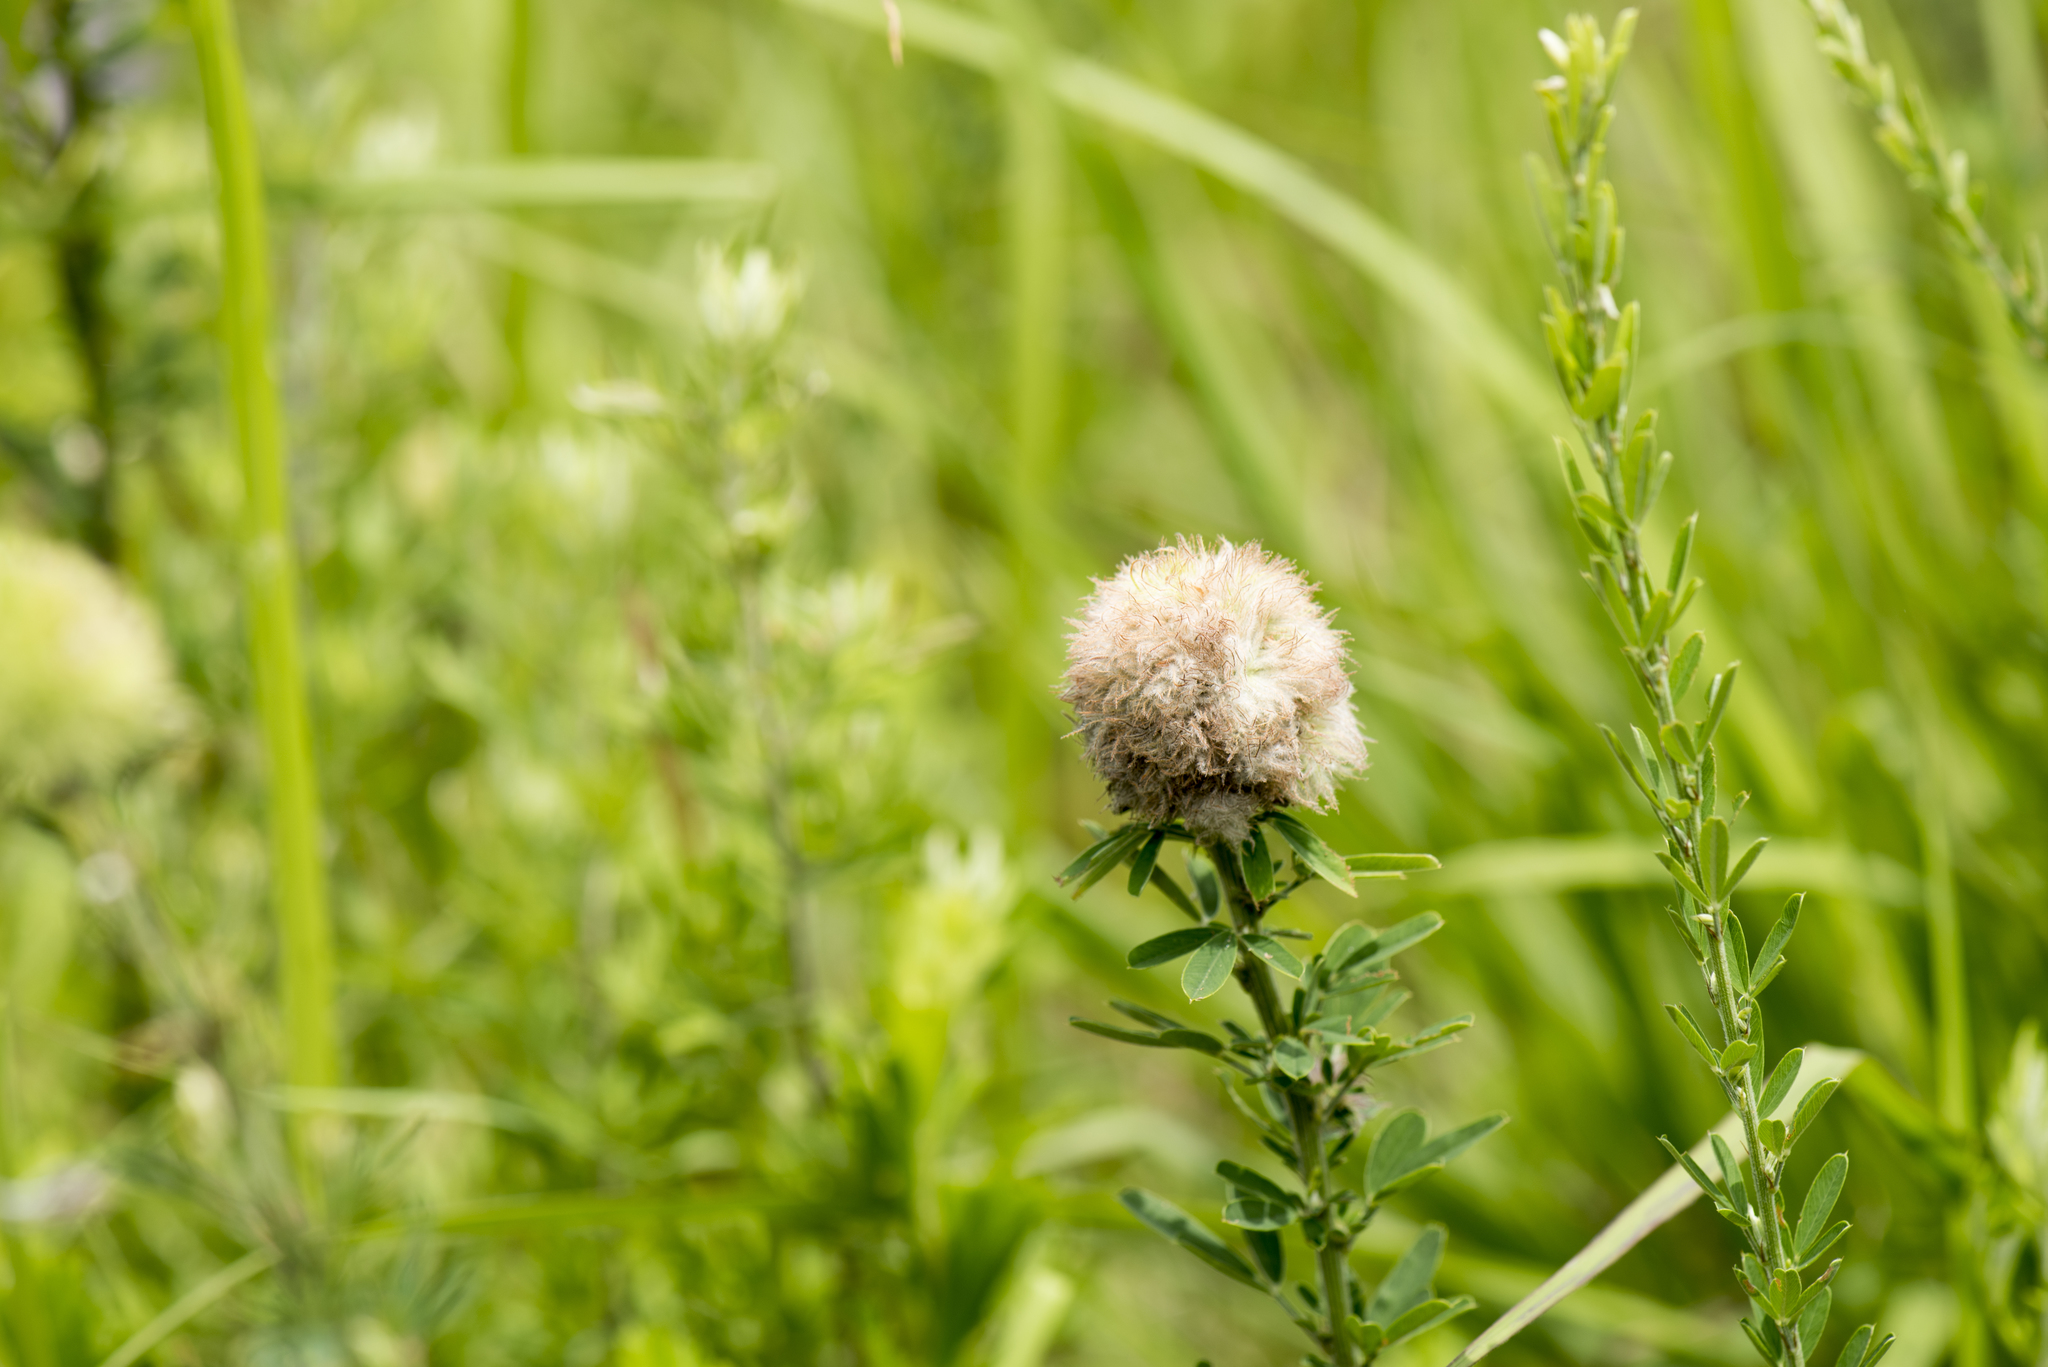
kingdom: Plantae
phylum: Tracheophyta
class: Magnoliopsida
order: Fabales
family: Fabaceae
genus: Lespedeza
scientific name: Lespedeza cuneata
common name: Chinese bush-clover
